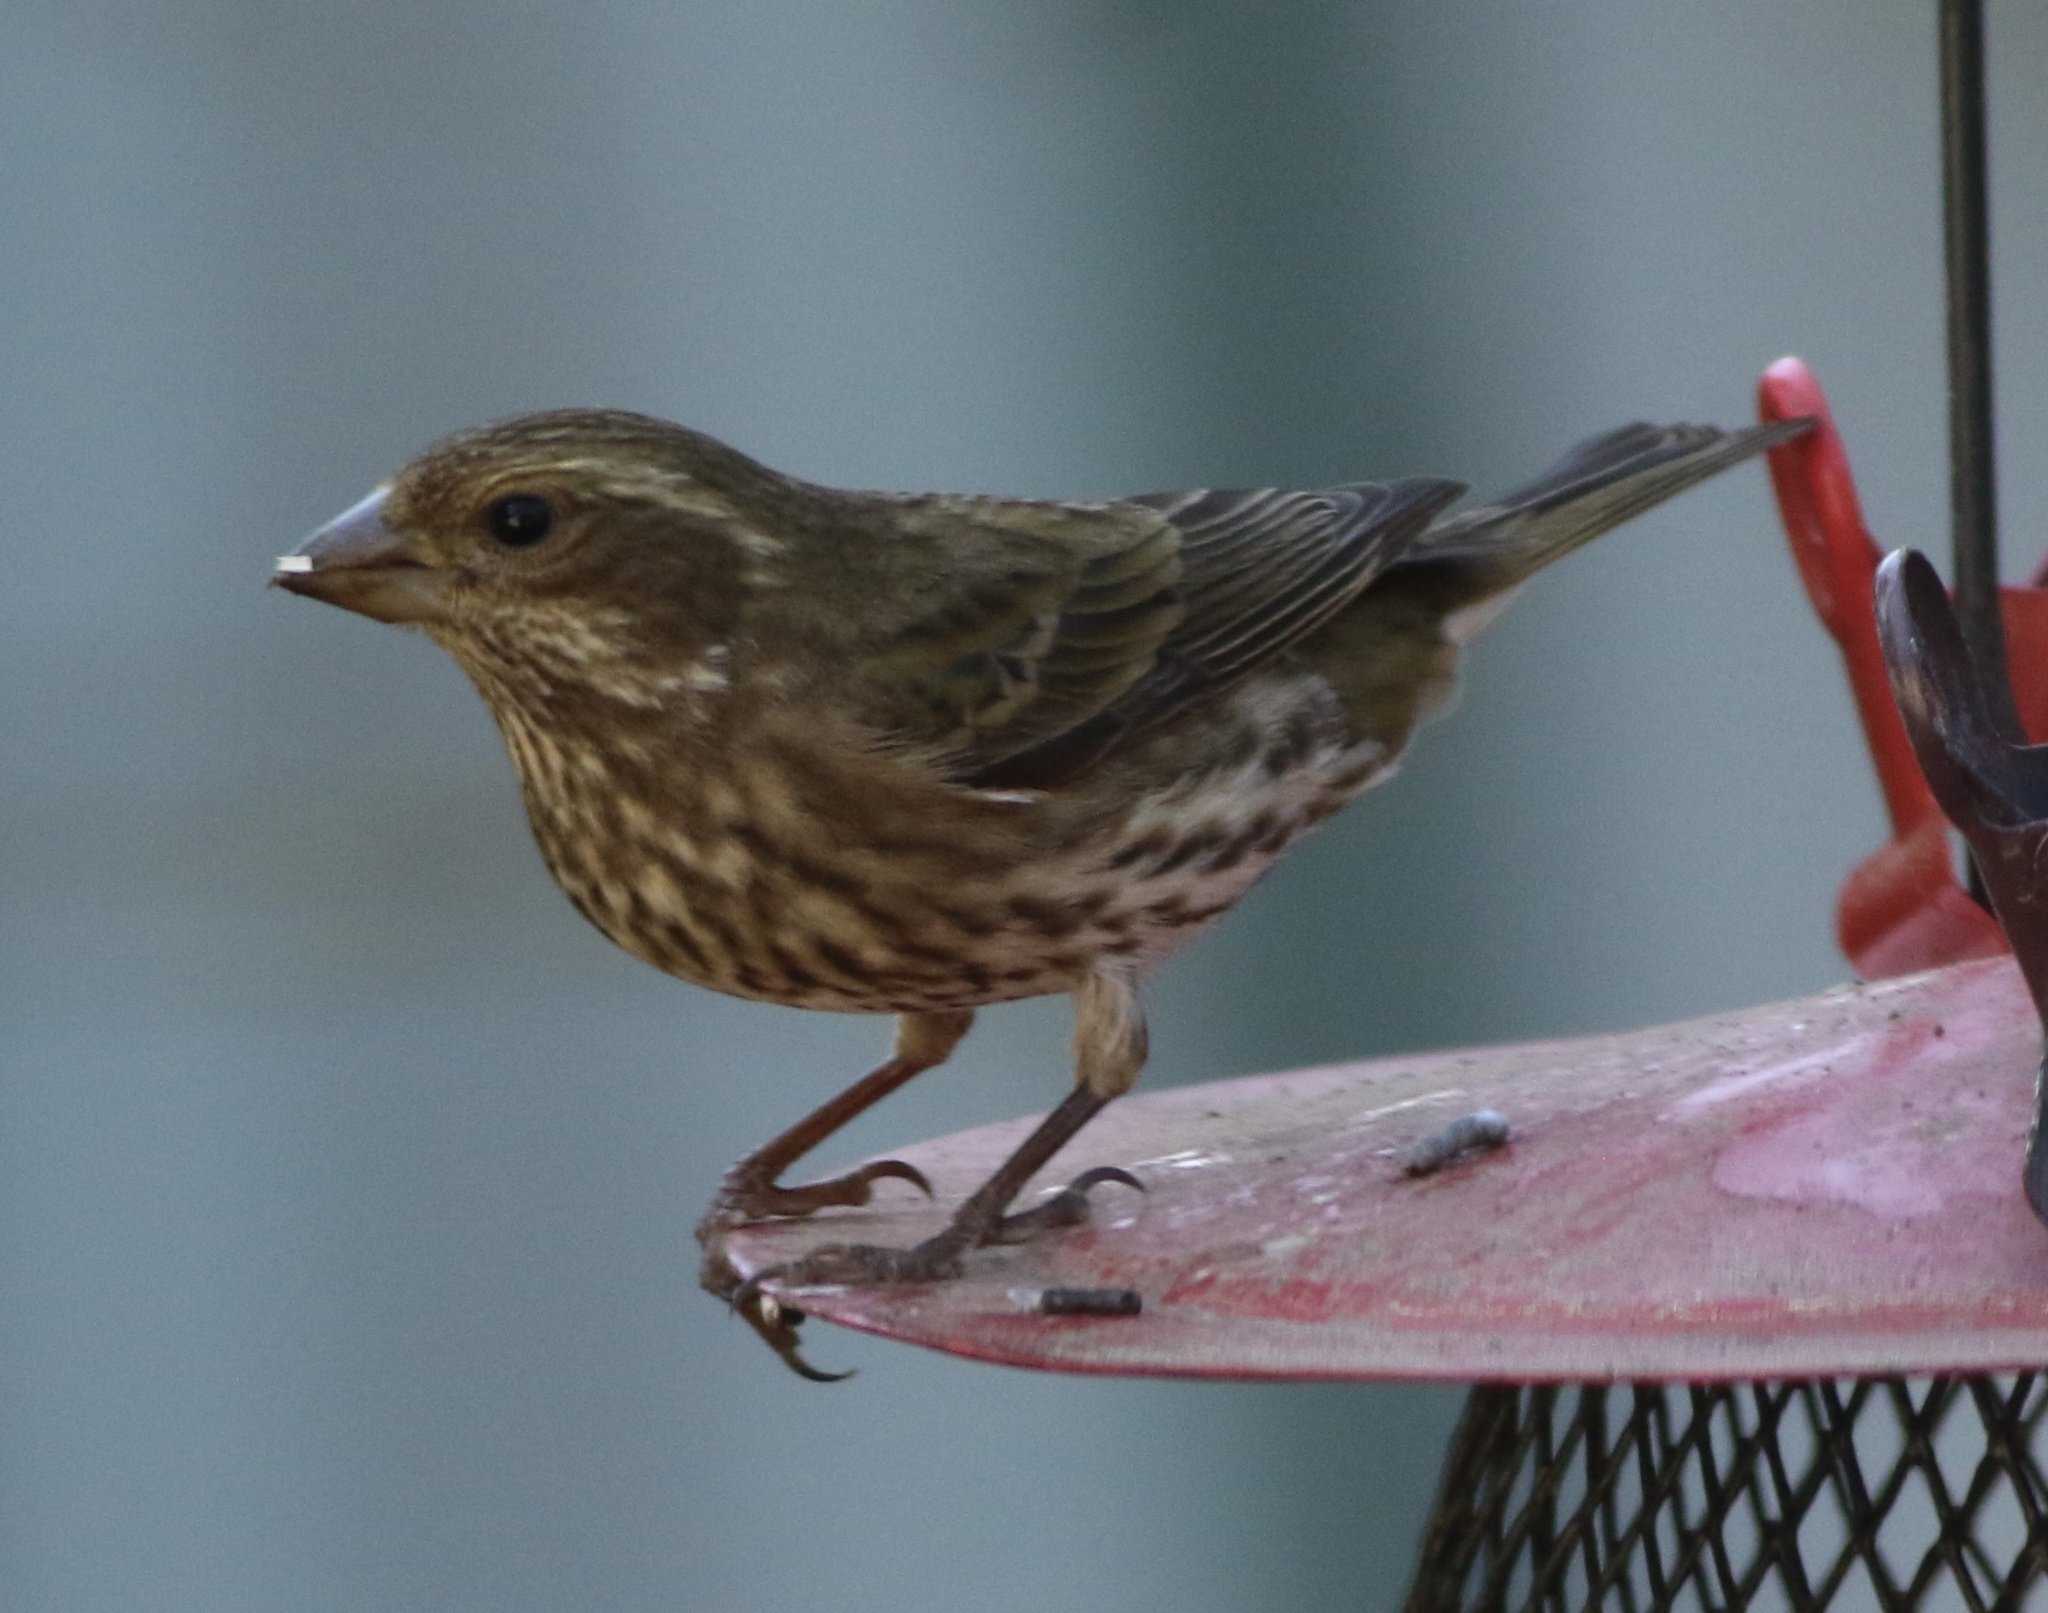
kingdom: Animalia
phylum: Chordata
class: Aves
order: Passeriformes
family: Fringillidae
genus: Haemorhous
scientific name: Haemorhous purpureus
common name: Purple finch
